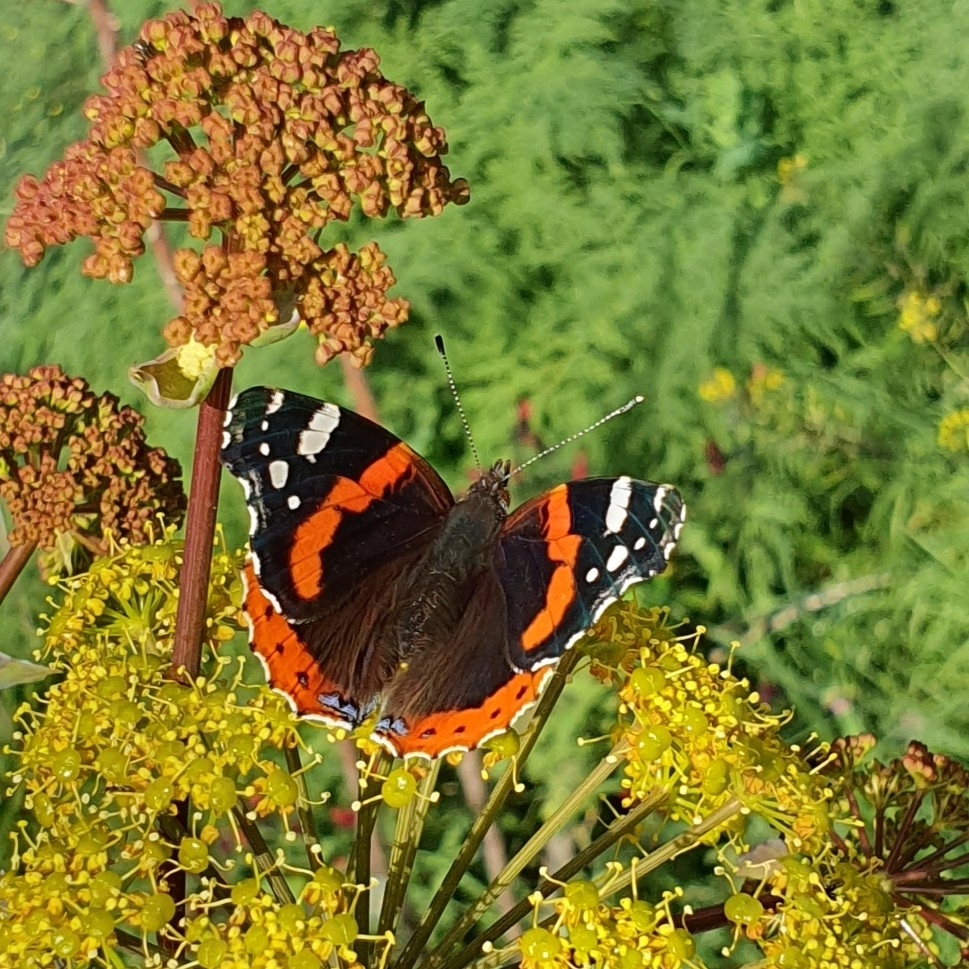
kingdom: Animalia
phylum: Arthropoda
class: Insecta
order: Lepidoptera
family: Nymphalidae
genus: Vanessa
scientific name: Vanessa atalanta
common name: Red admiral
